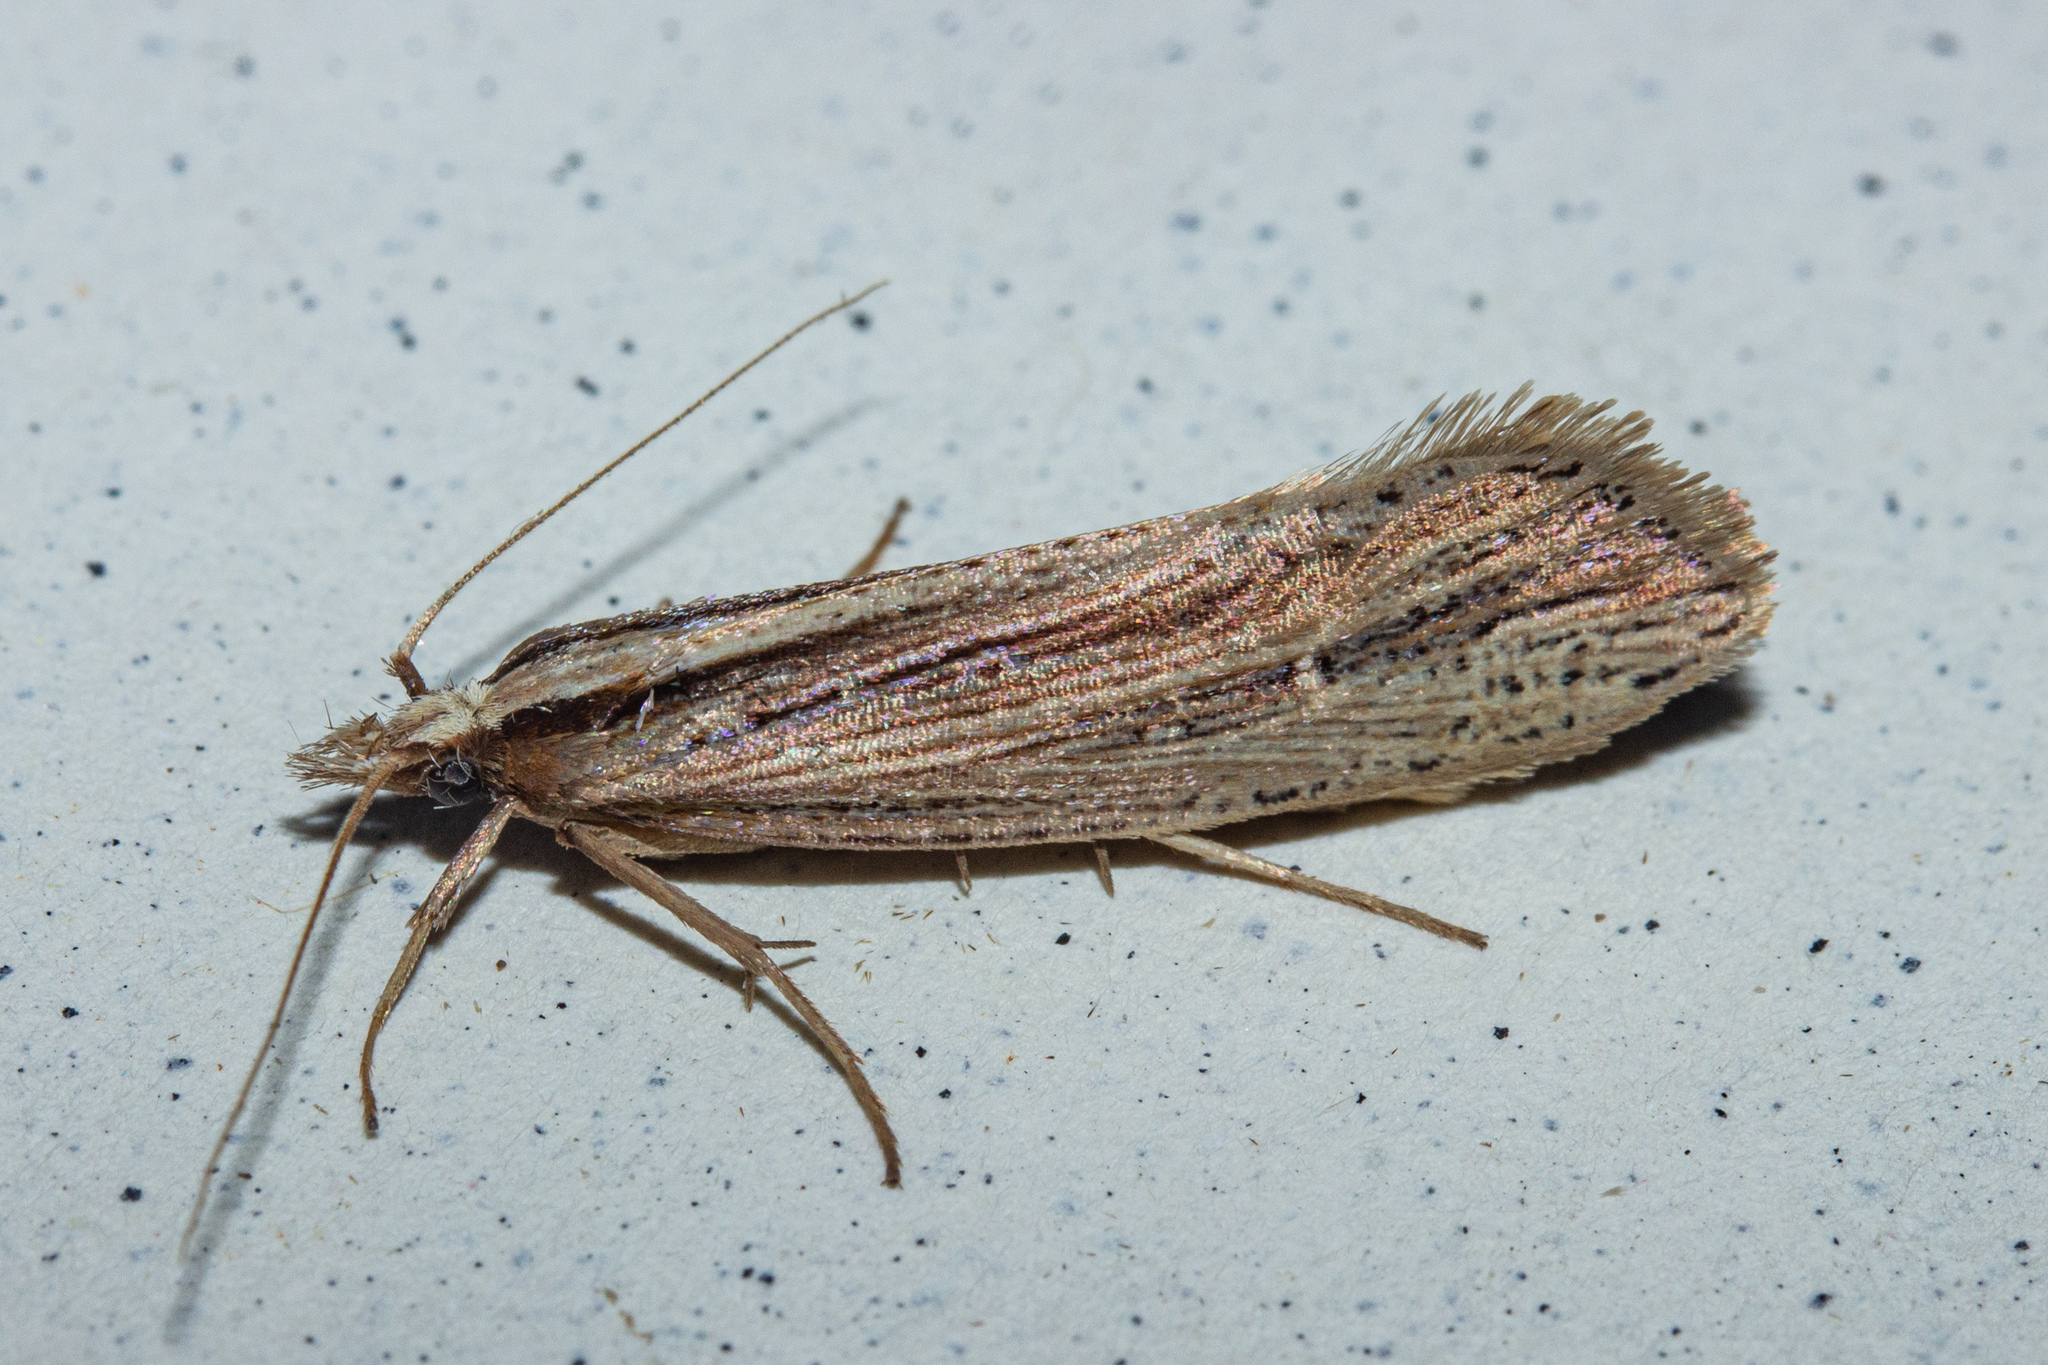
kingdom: Animalia
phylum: Arthropoda
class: Insecta
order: Lepidoptera
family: Plutellidae
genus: Proditrix
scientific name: Proditrix megalynta
